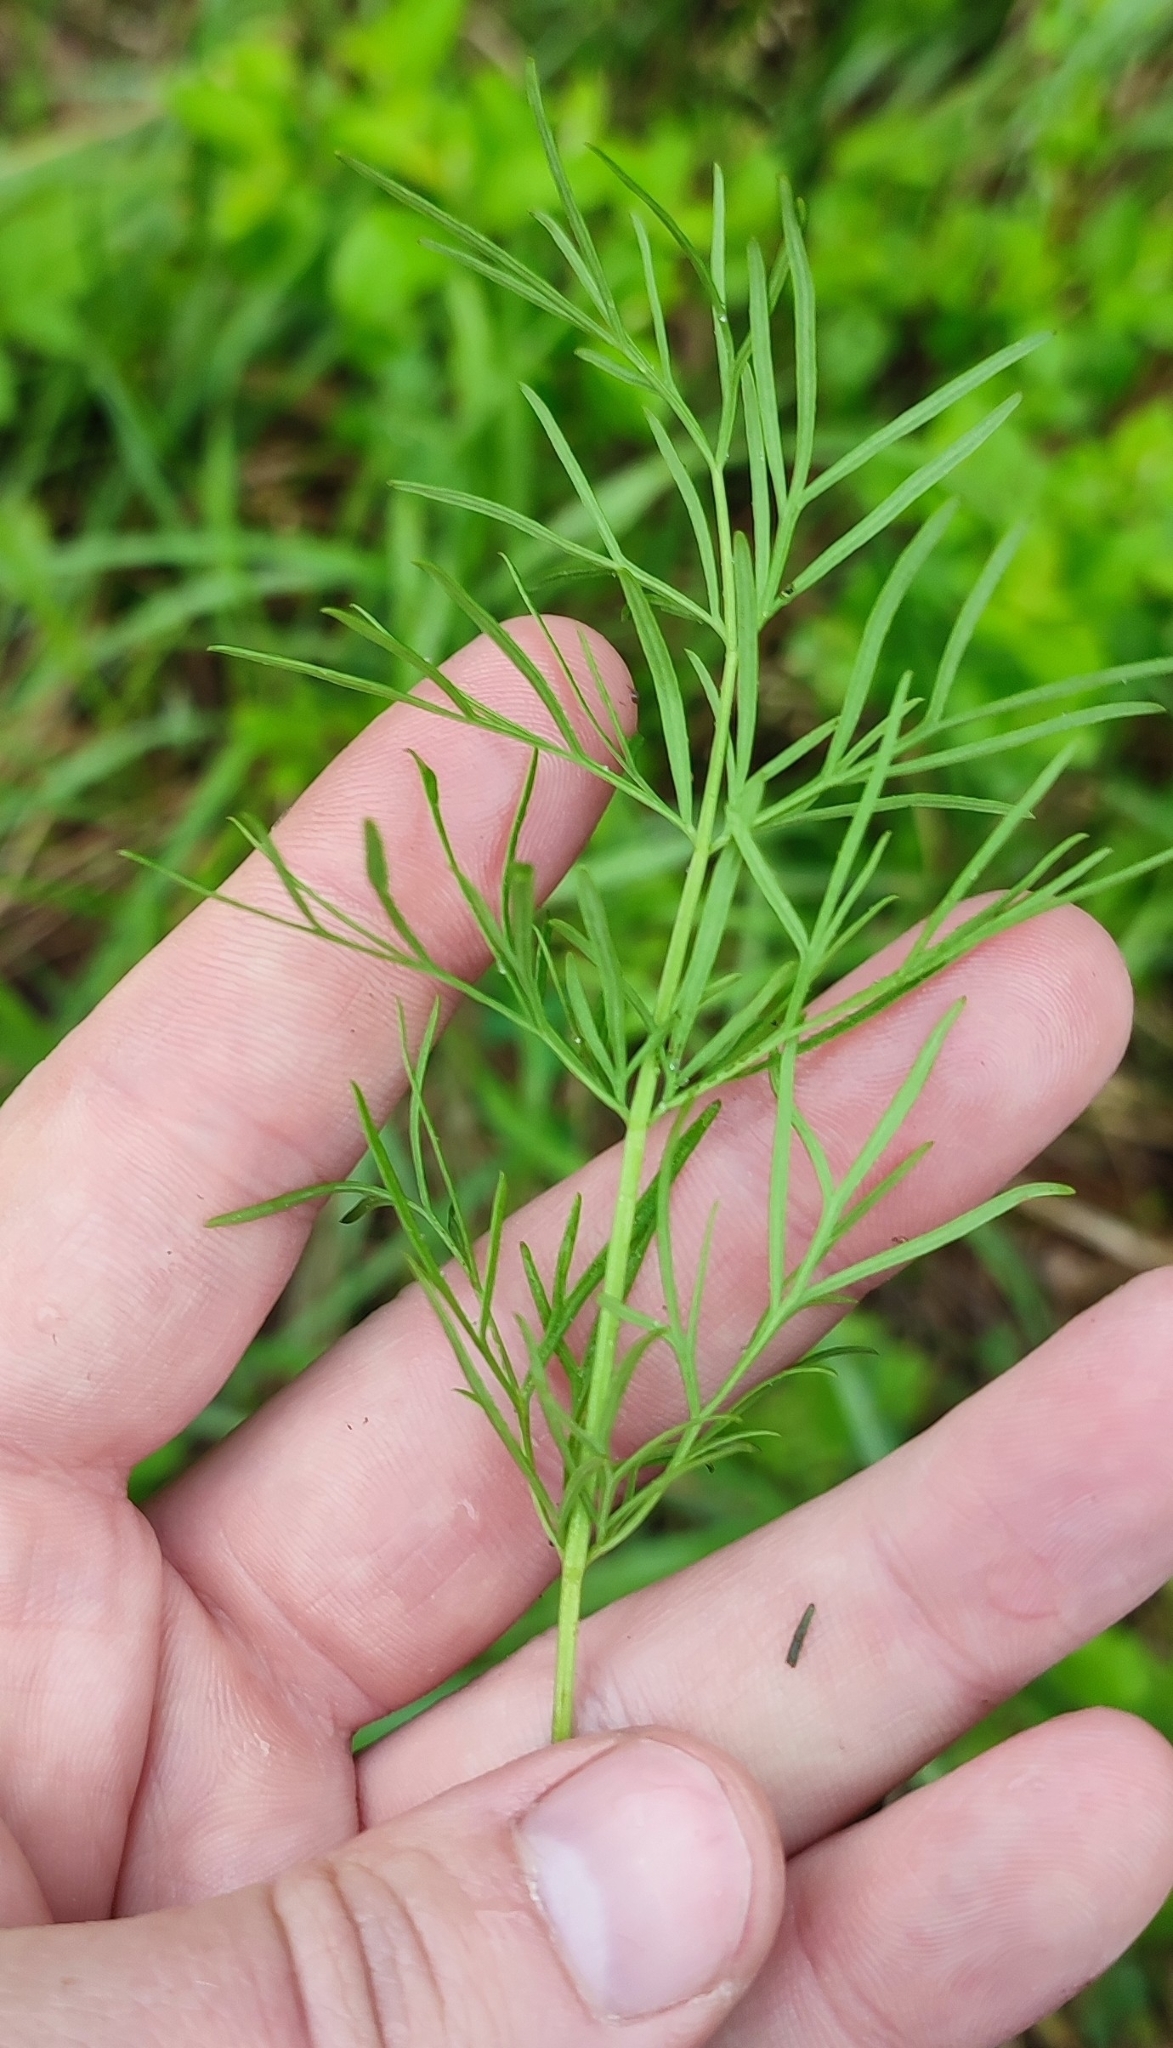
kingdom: Plantae
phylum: Tracheophyta
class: Magnoliopsida
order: Apiales
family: Apiaceae
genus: Kadenia
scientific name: Kadenia dubia
